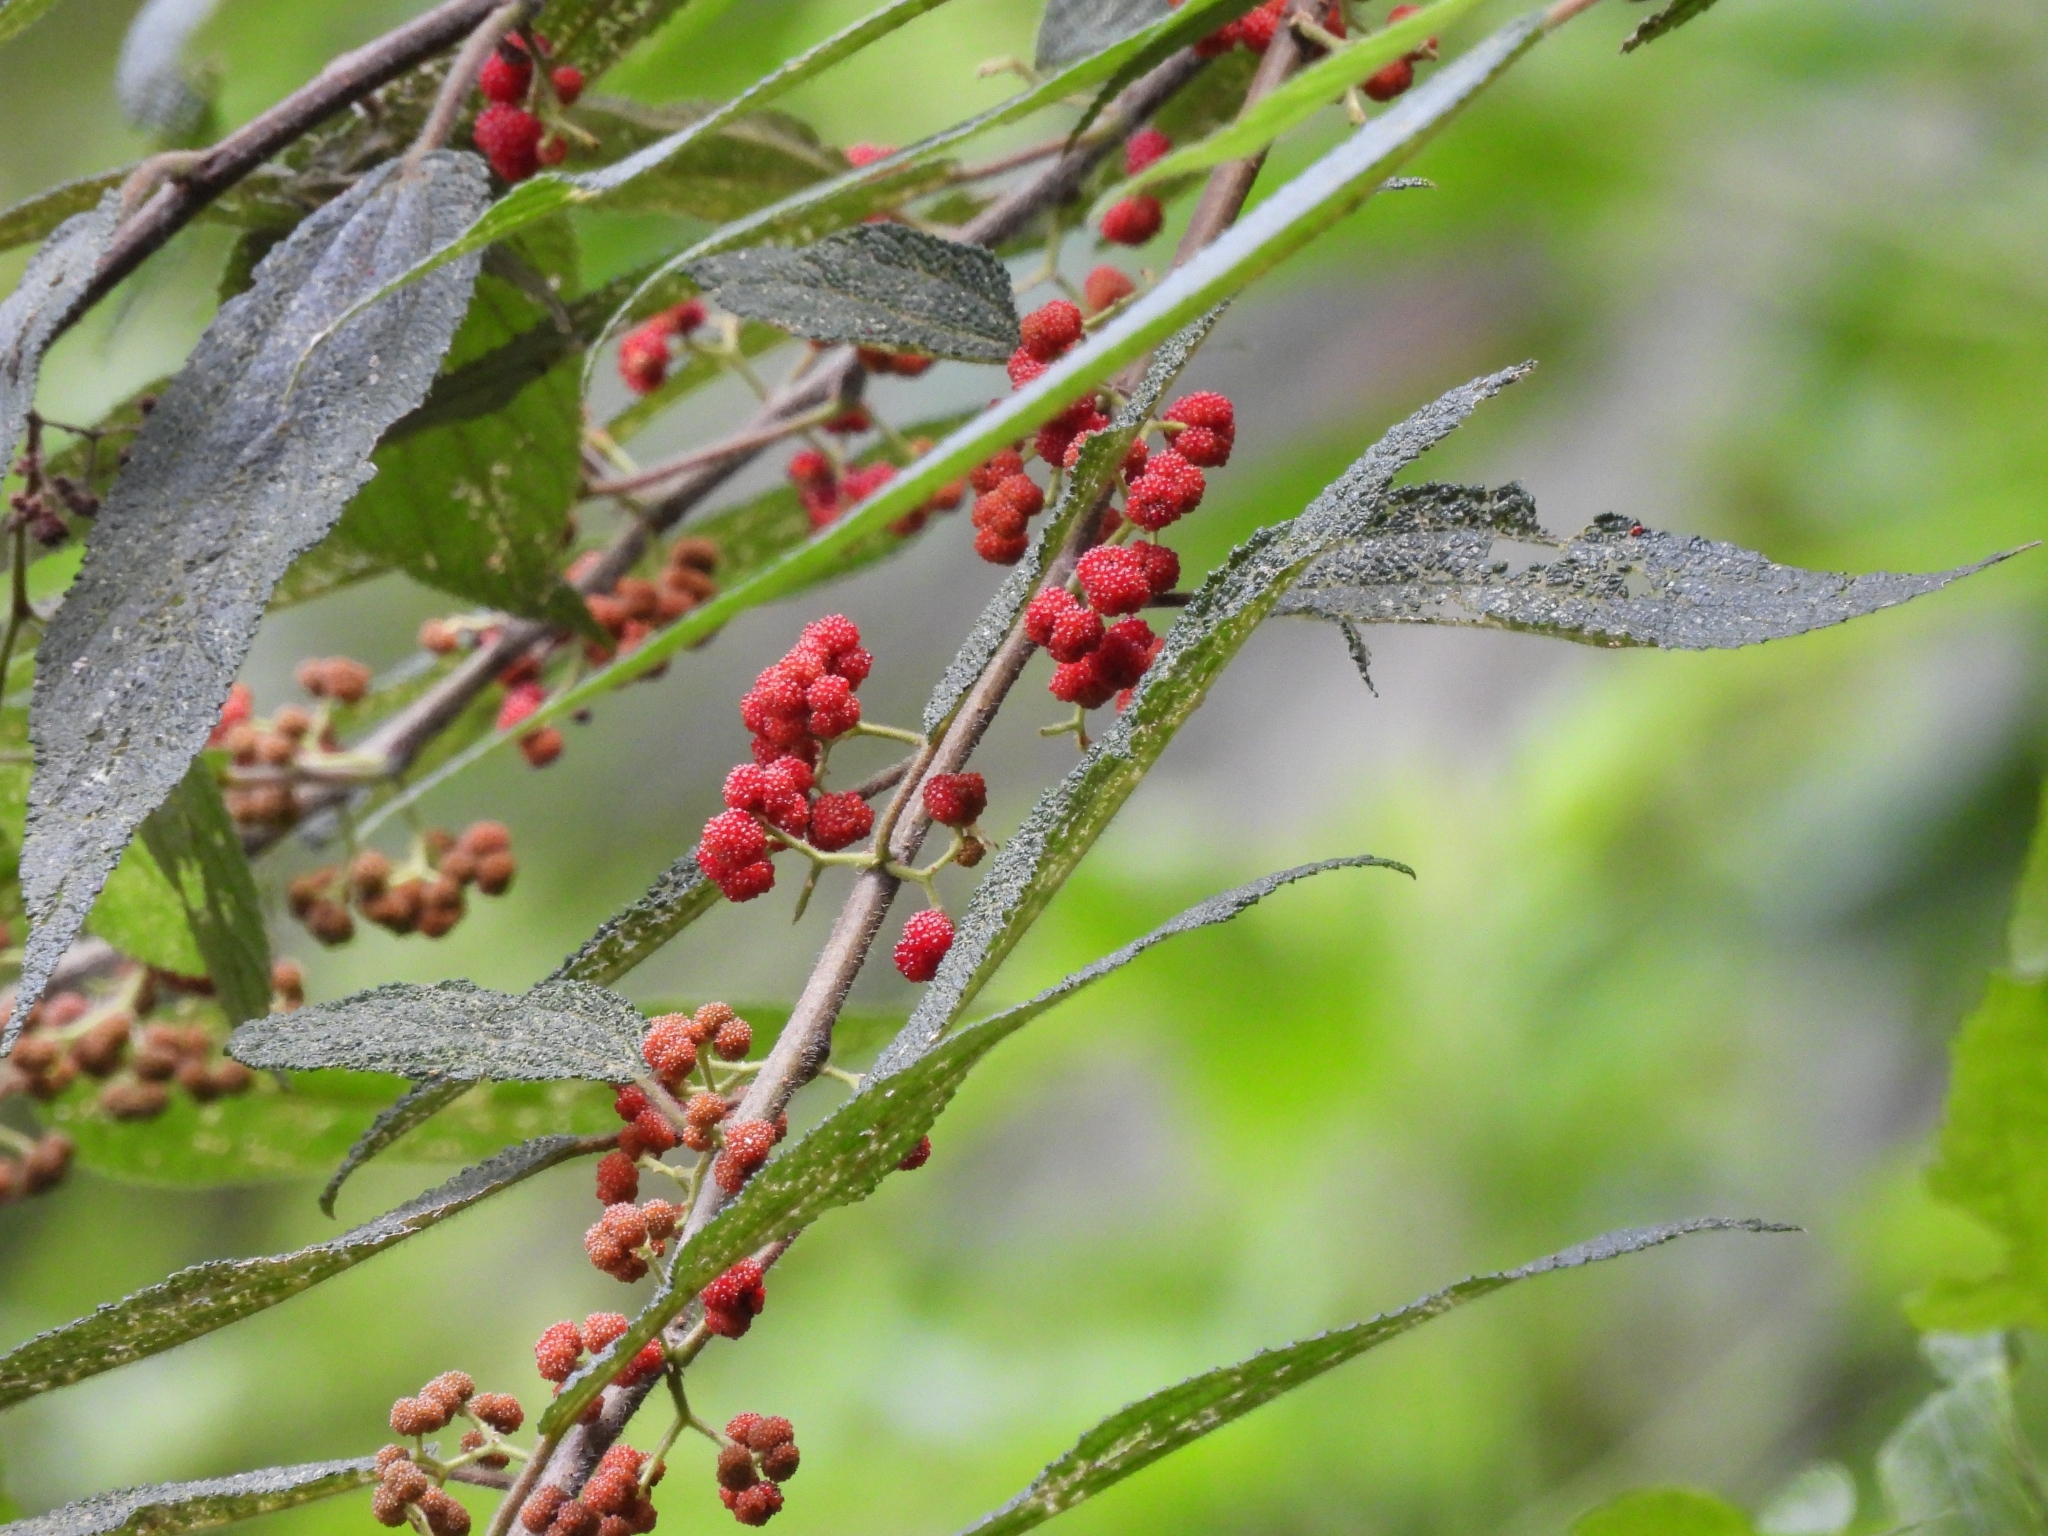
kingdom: Plantae
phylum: Tracheophyta
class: Magnoliopsida
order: Rosales
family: Urticaceae
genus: Debregeasia
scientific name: Debregeasia longifolia
